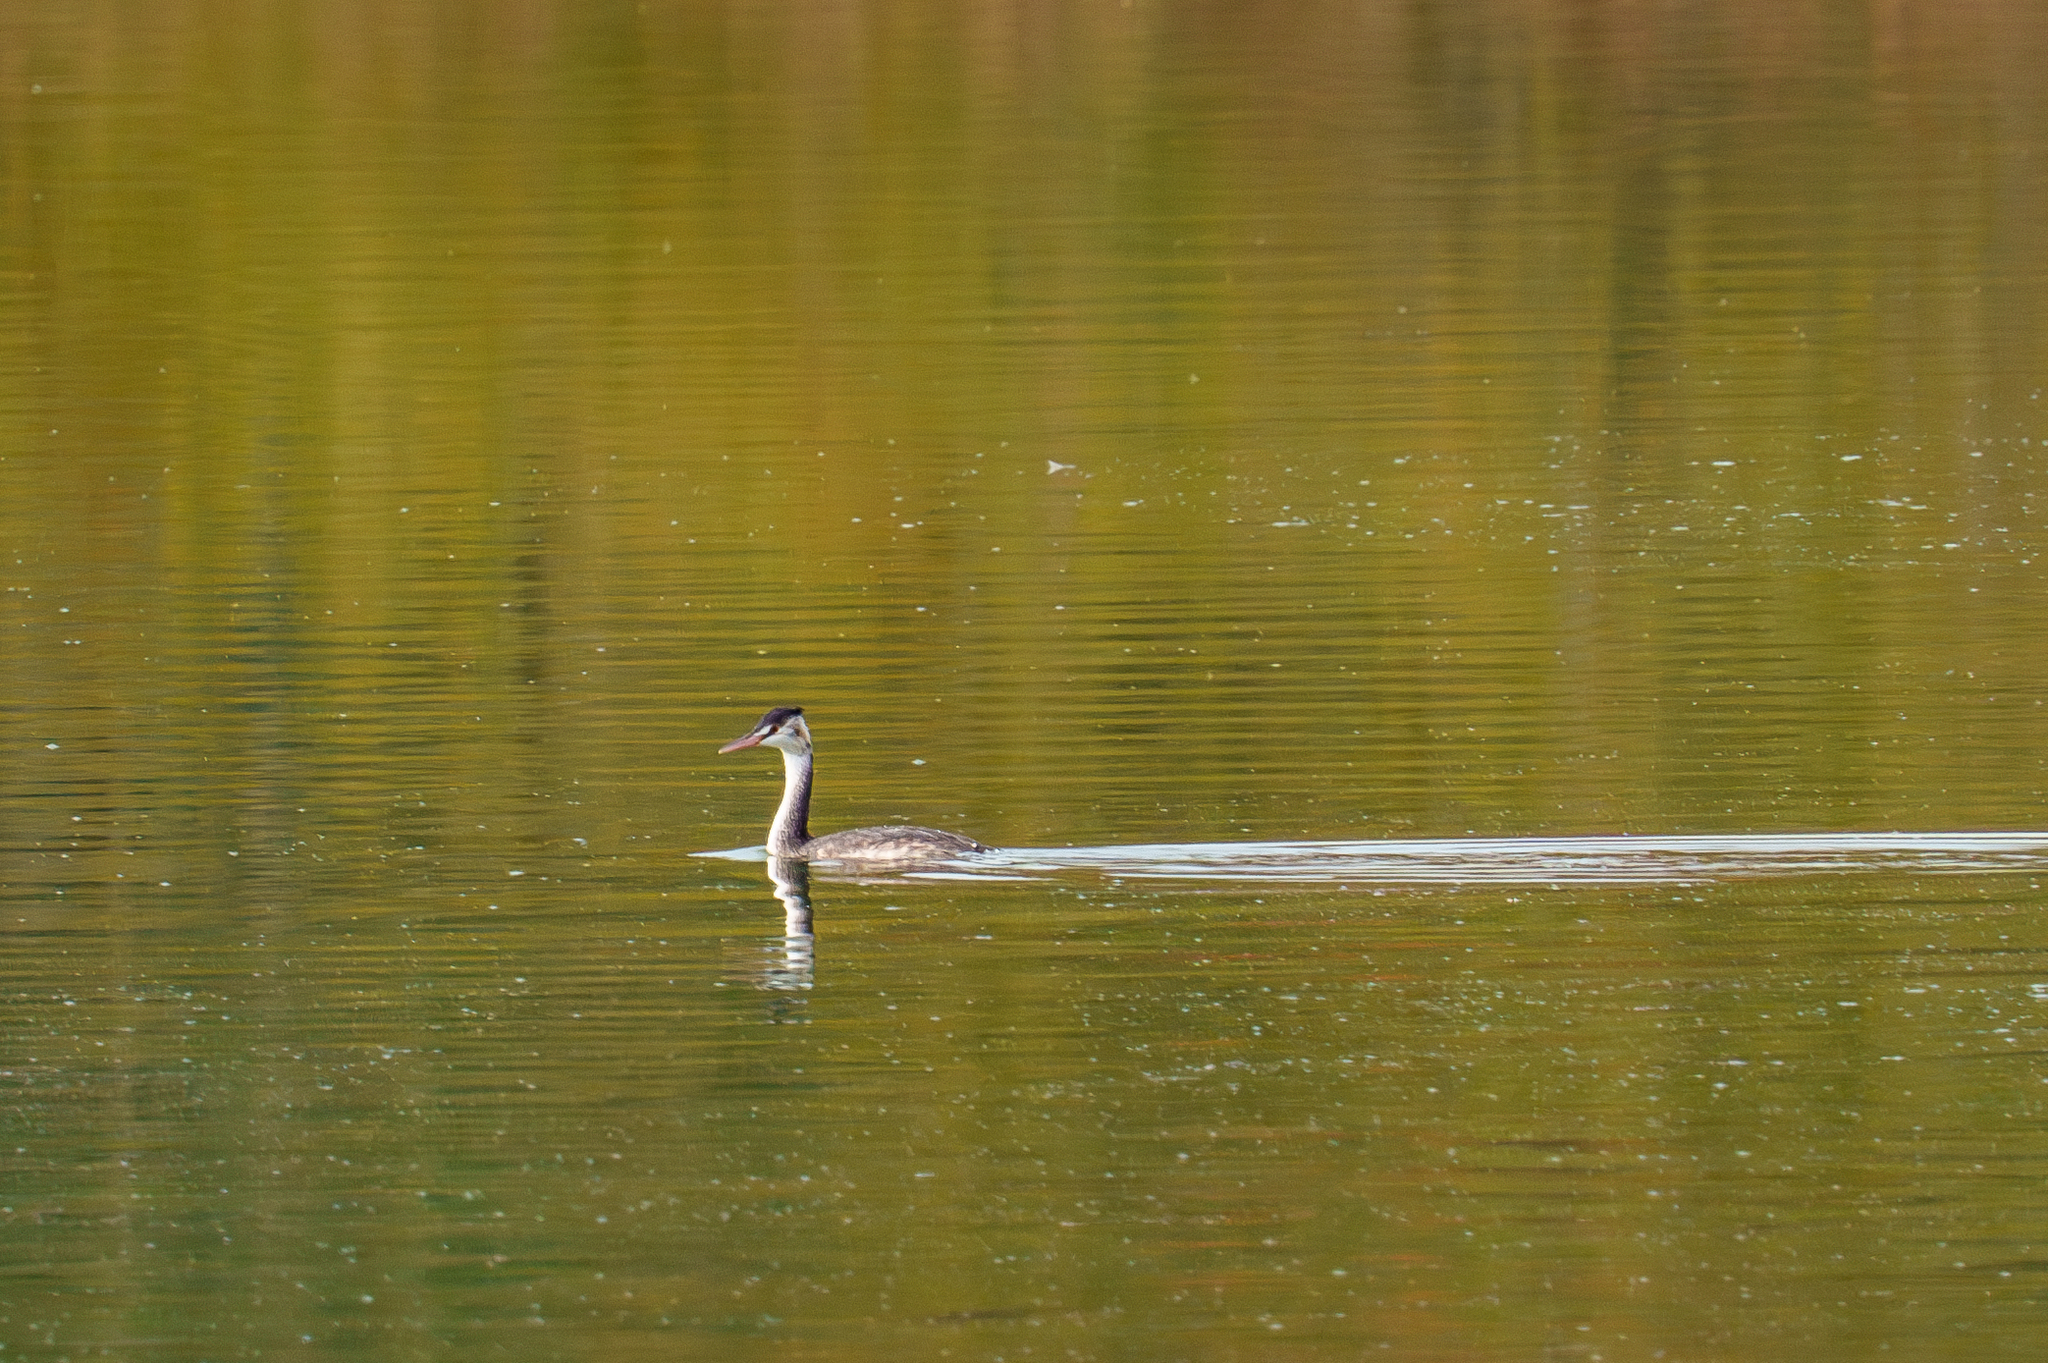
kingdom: Animalia
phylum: Chordata
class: Aves
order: Podicipediformes
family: Podicipedidae
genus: Podiceps
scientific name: Podiceps cristatus
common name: Great crested grebe
